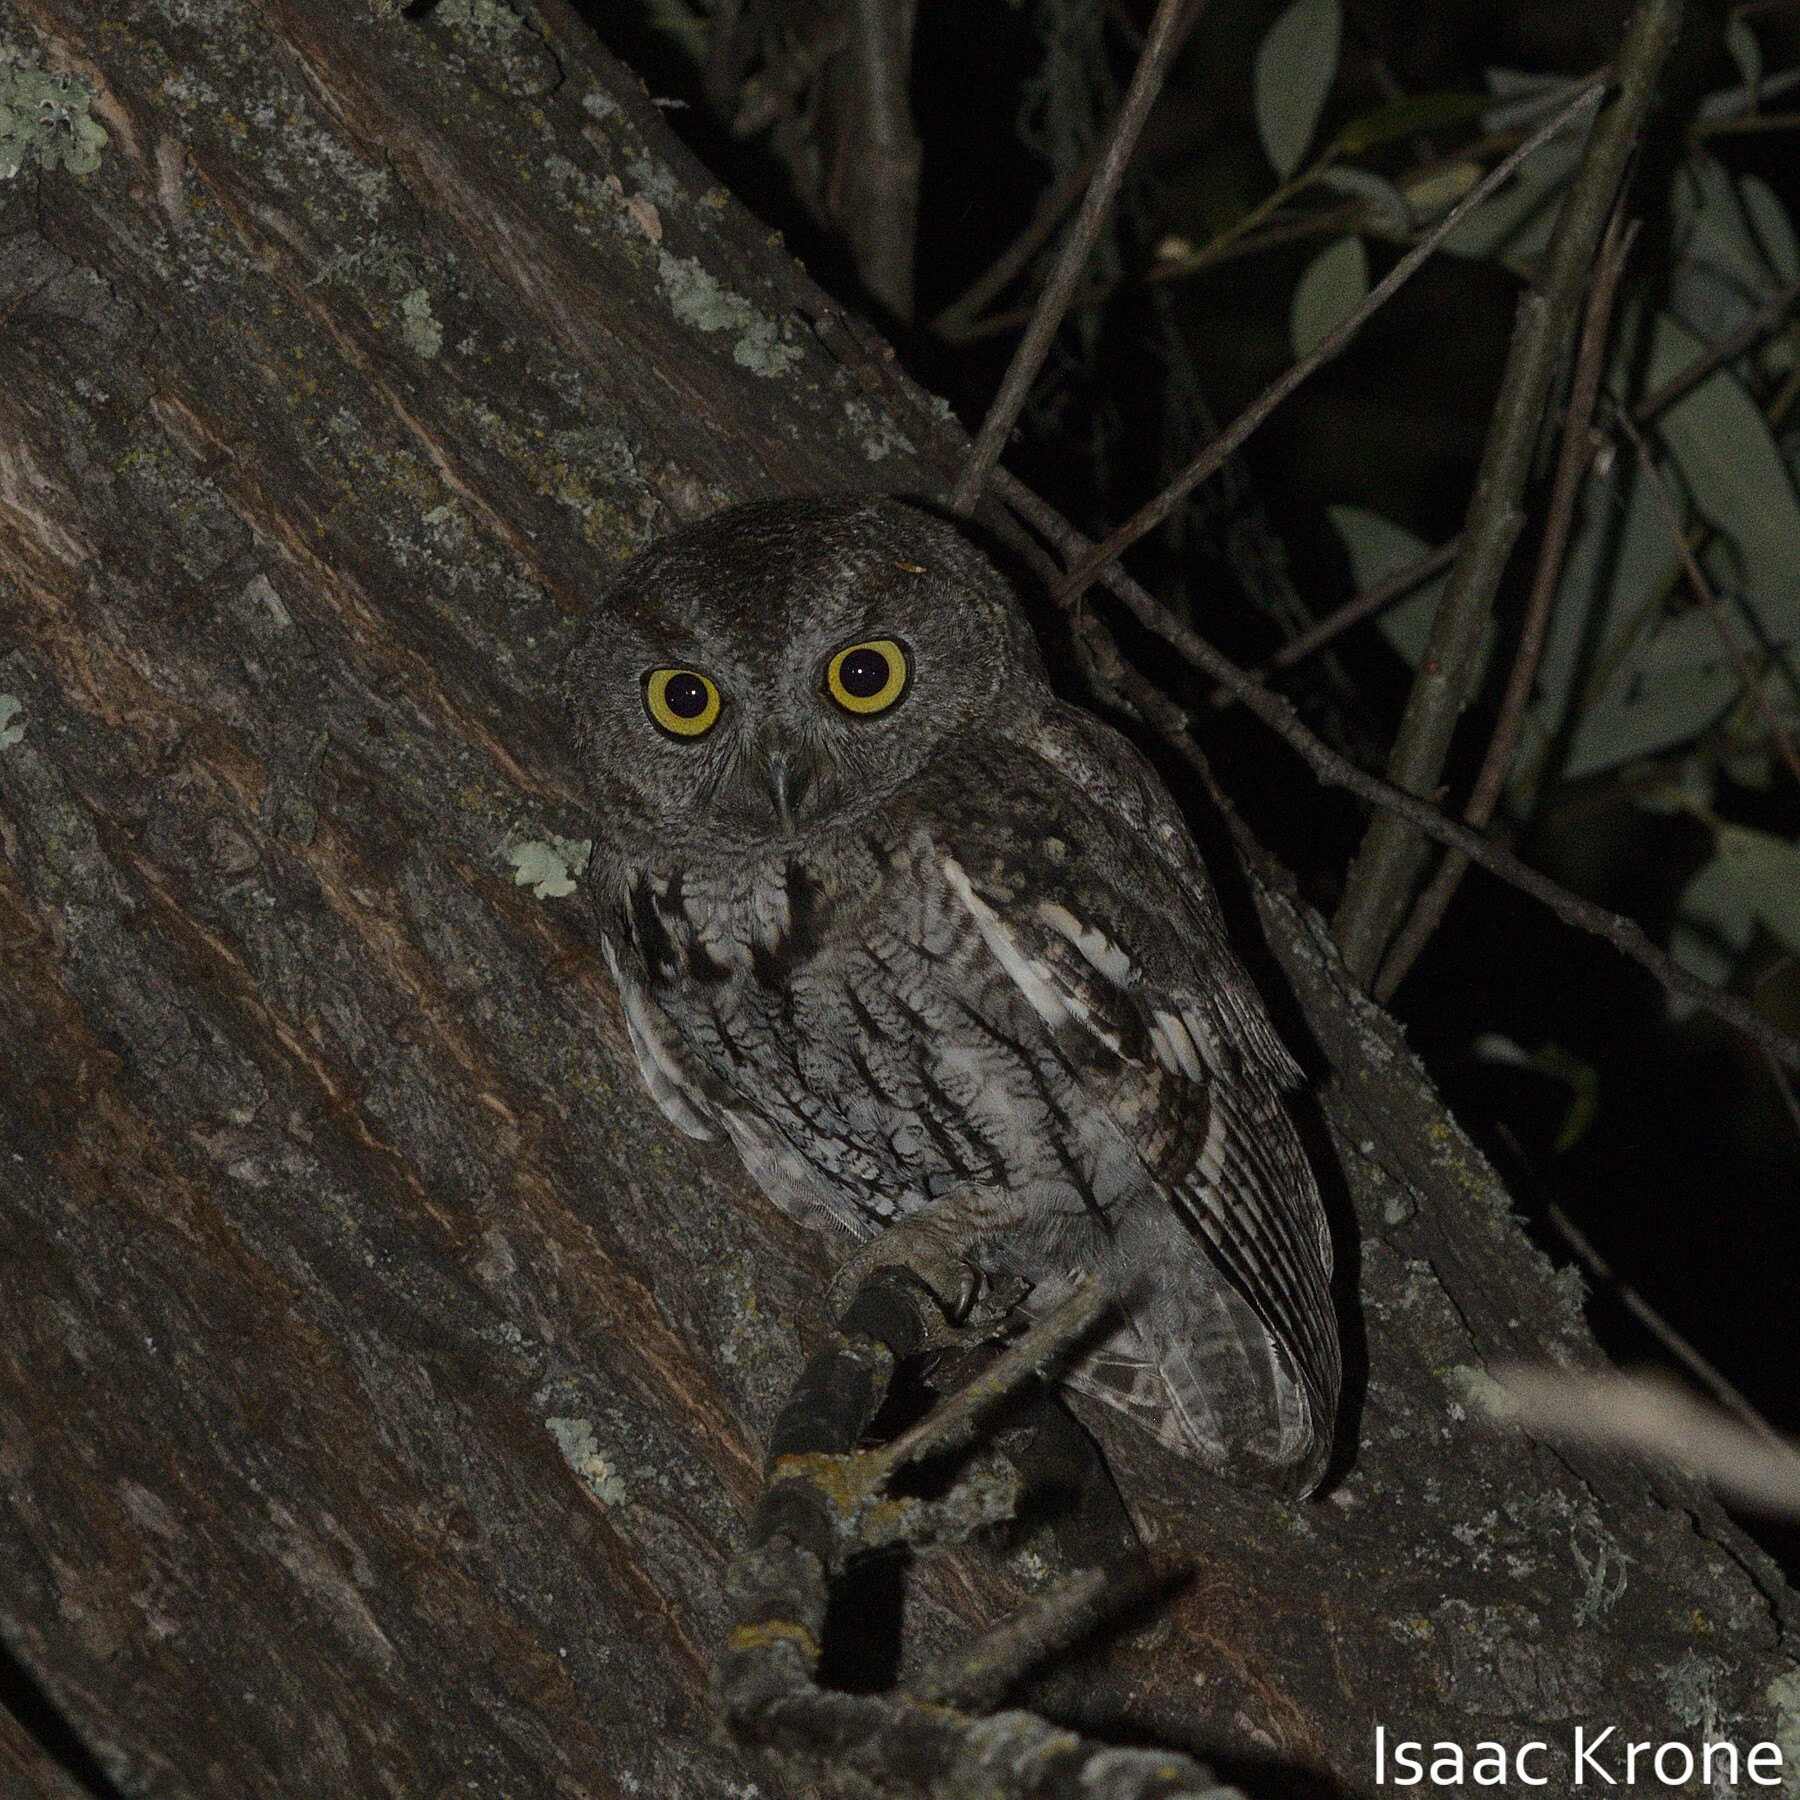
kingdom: Animalia
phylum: Chordata
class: Aves
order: Strigiformes
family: Strigidae
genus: Megascops
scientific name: Megascops kennicottii
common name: Western screech-owl
